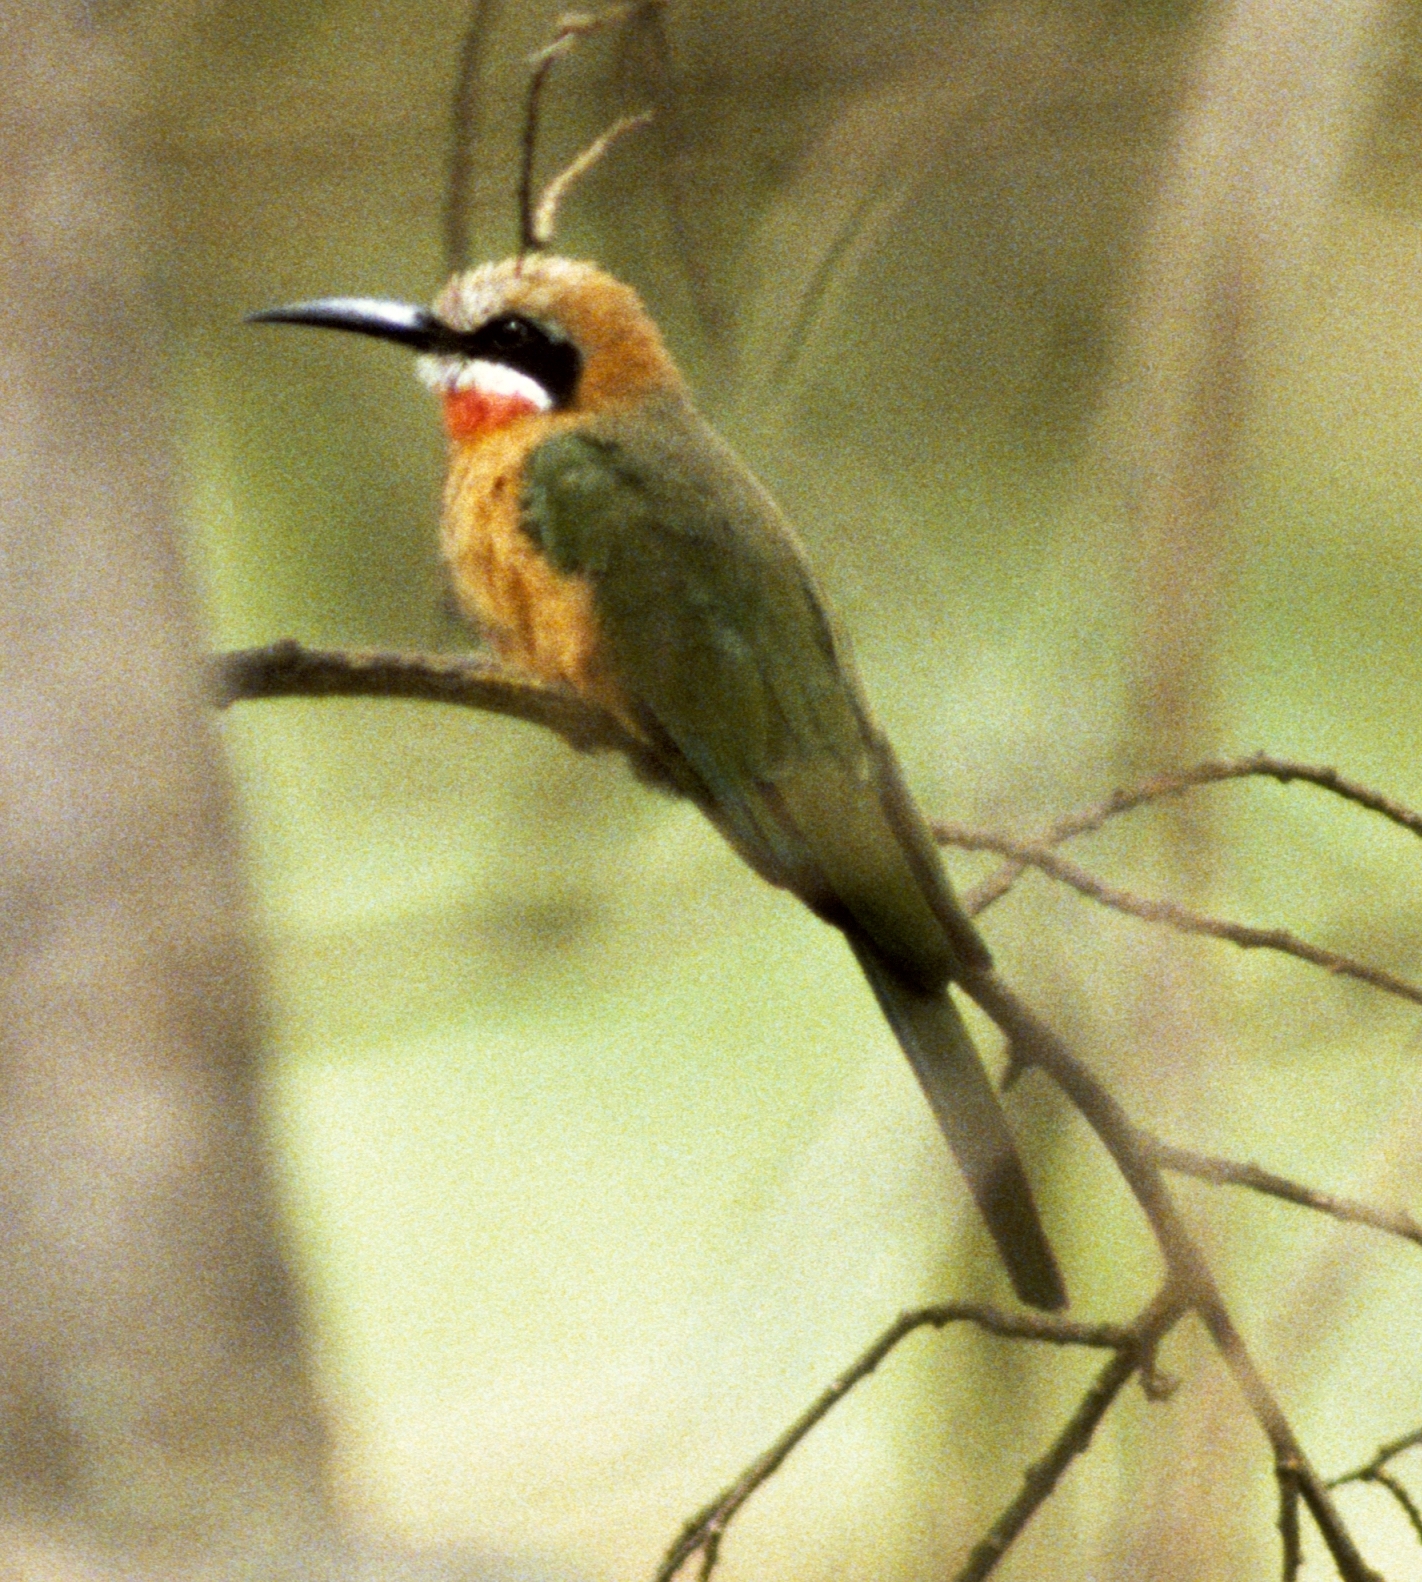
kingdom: Animalia
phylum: Chordata
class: Aves
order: Coraciiformes
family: Meropidae
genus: Merops
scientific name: Merops bullockoides
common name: White-fronted bee-eater
